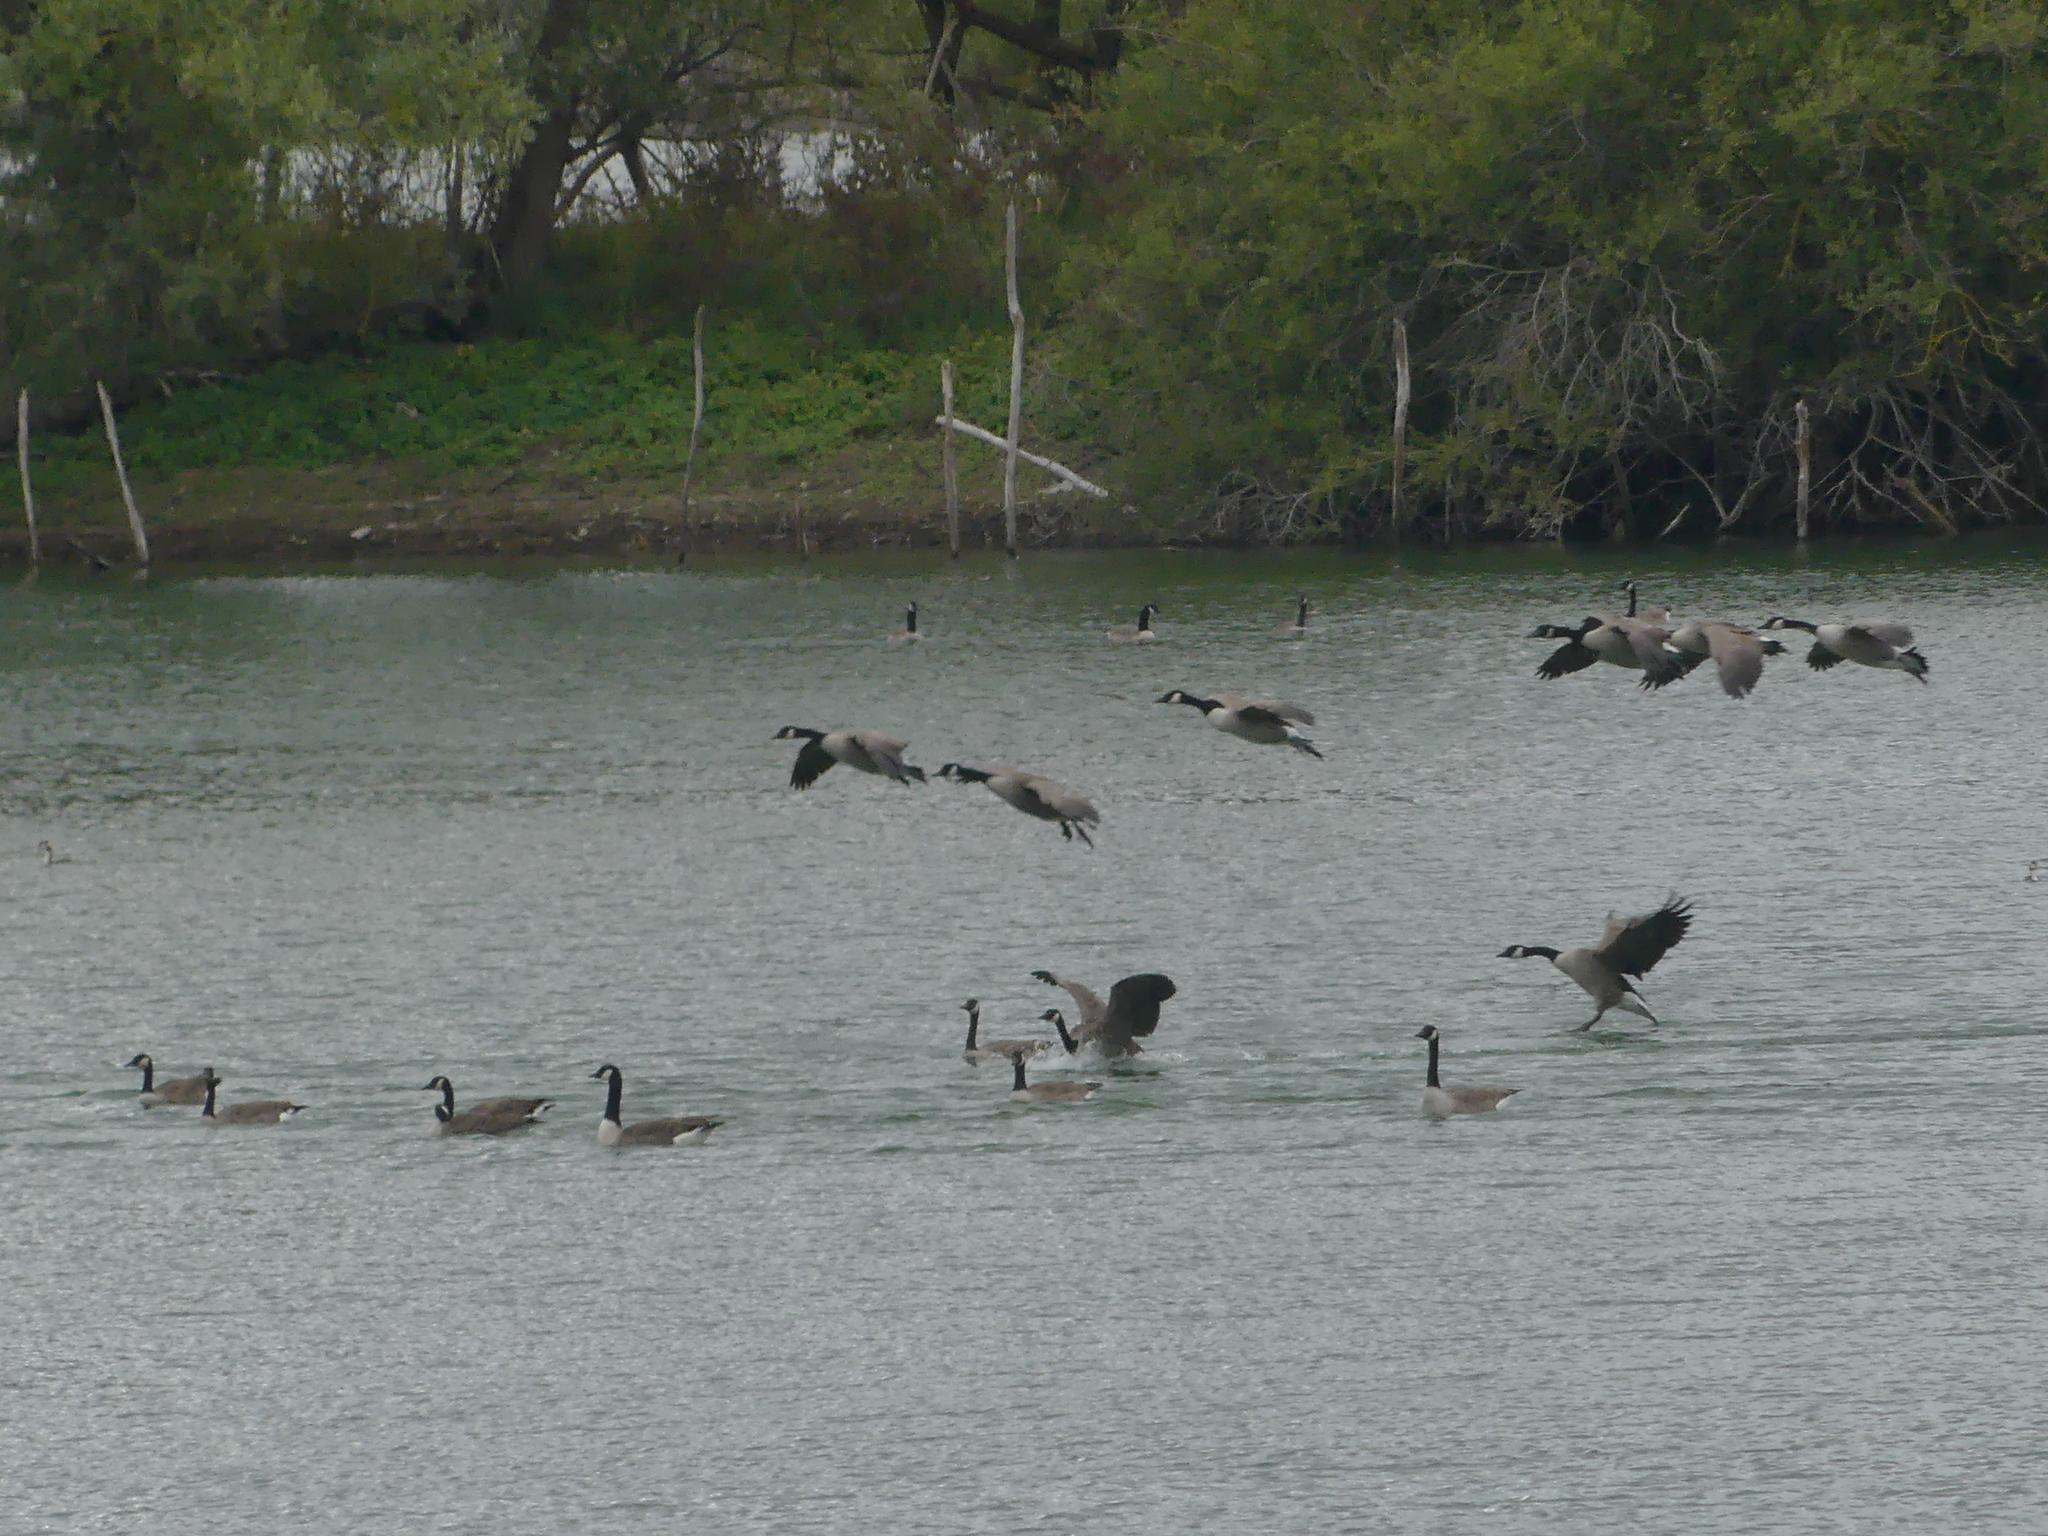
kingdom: Animalia
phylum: Chordata
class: Aves
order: Anseriformes
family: Anatidae
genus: Branta
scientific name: Branta canadensis
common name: Canada goose
